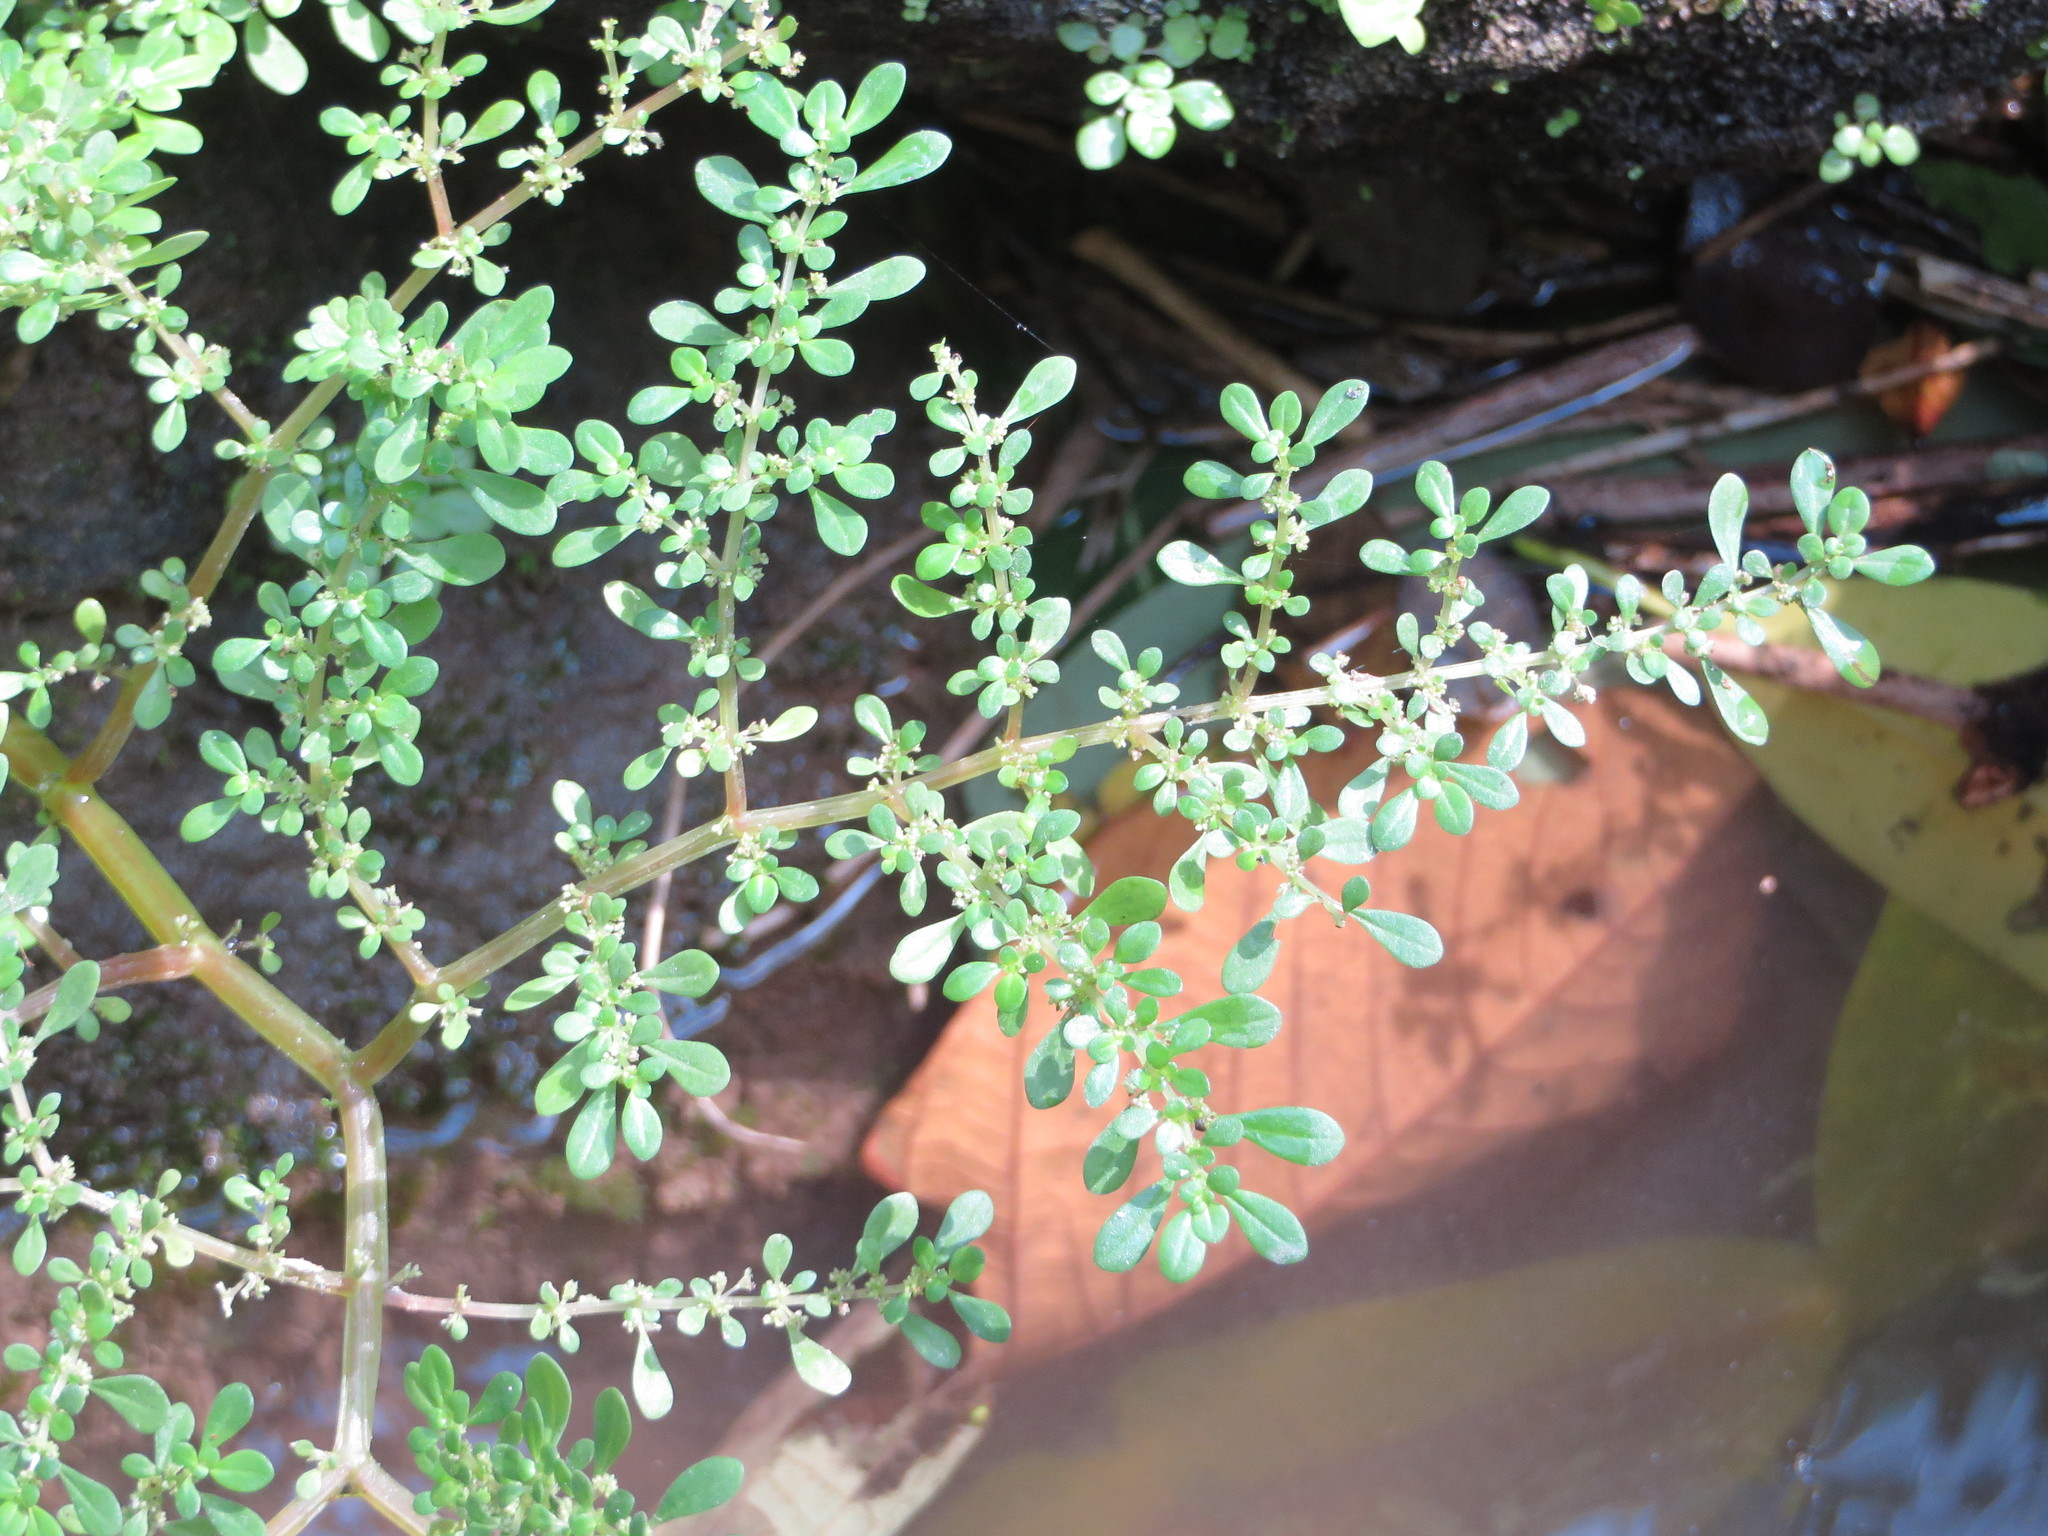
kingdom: Plantae
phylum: Tracheophyta
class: Magnoliopsida
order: Rosales
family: Urticaceae
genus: Pilea
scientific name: Pilea microphylla
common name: Artillery-plant
